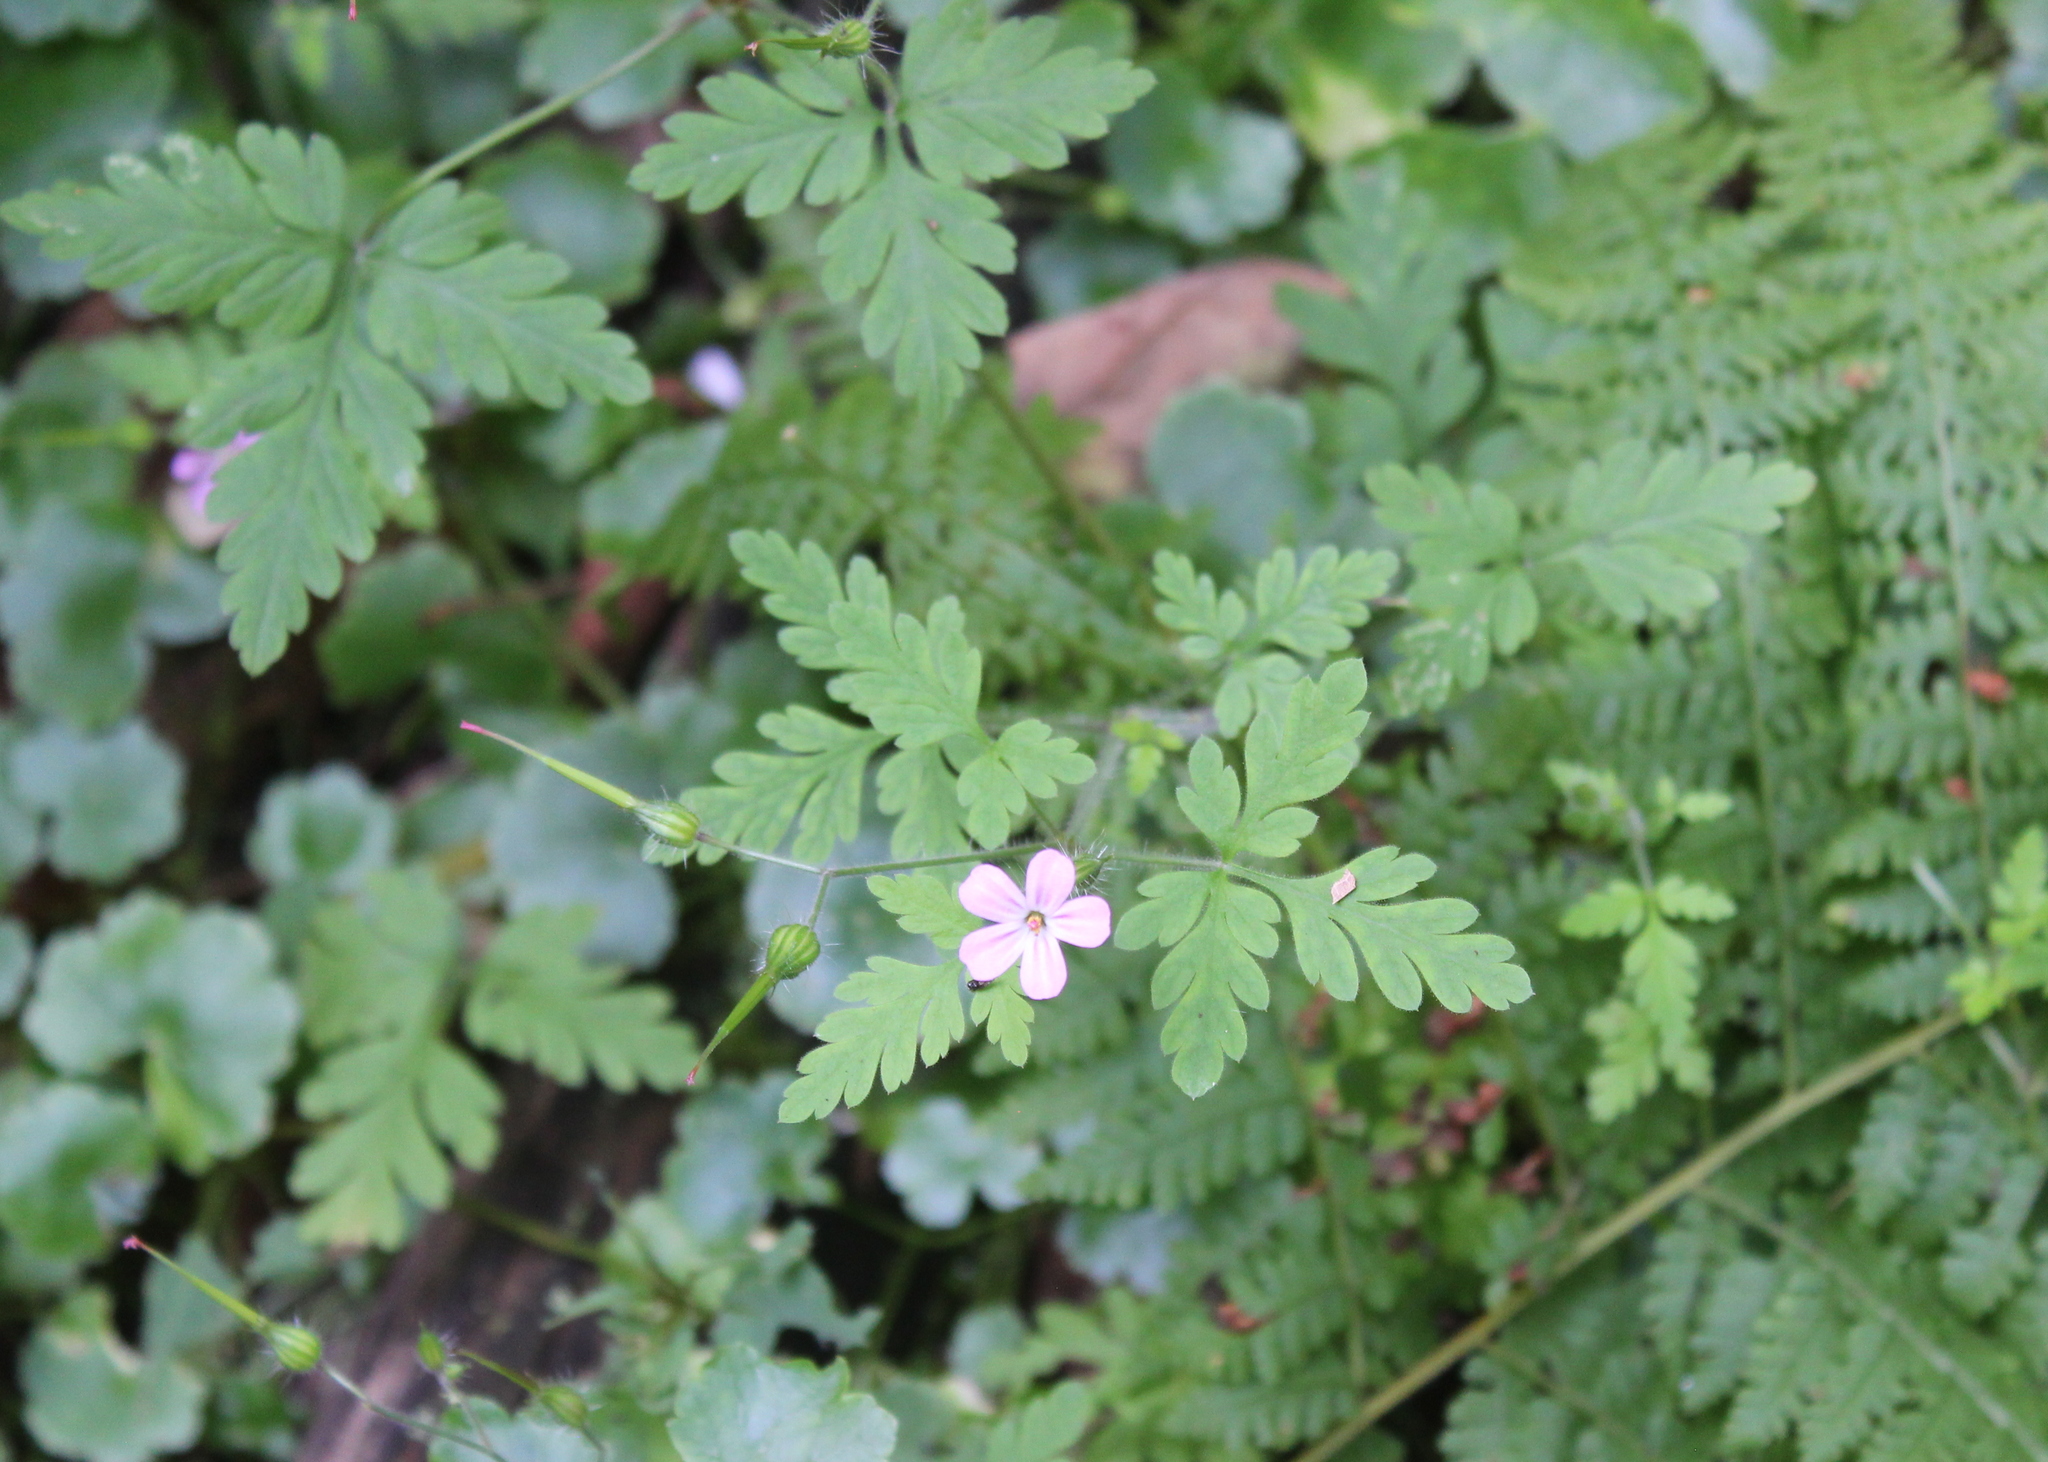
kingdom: Plantae
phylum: Tracheophyta
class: Magnoliopsida
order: Geraniales
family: Geraniaceae
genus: Geranium
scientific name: Geranium robertianum
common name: Herb-robert
